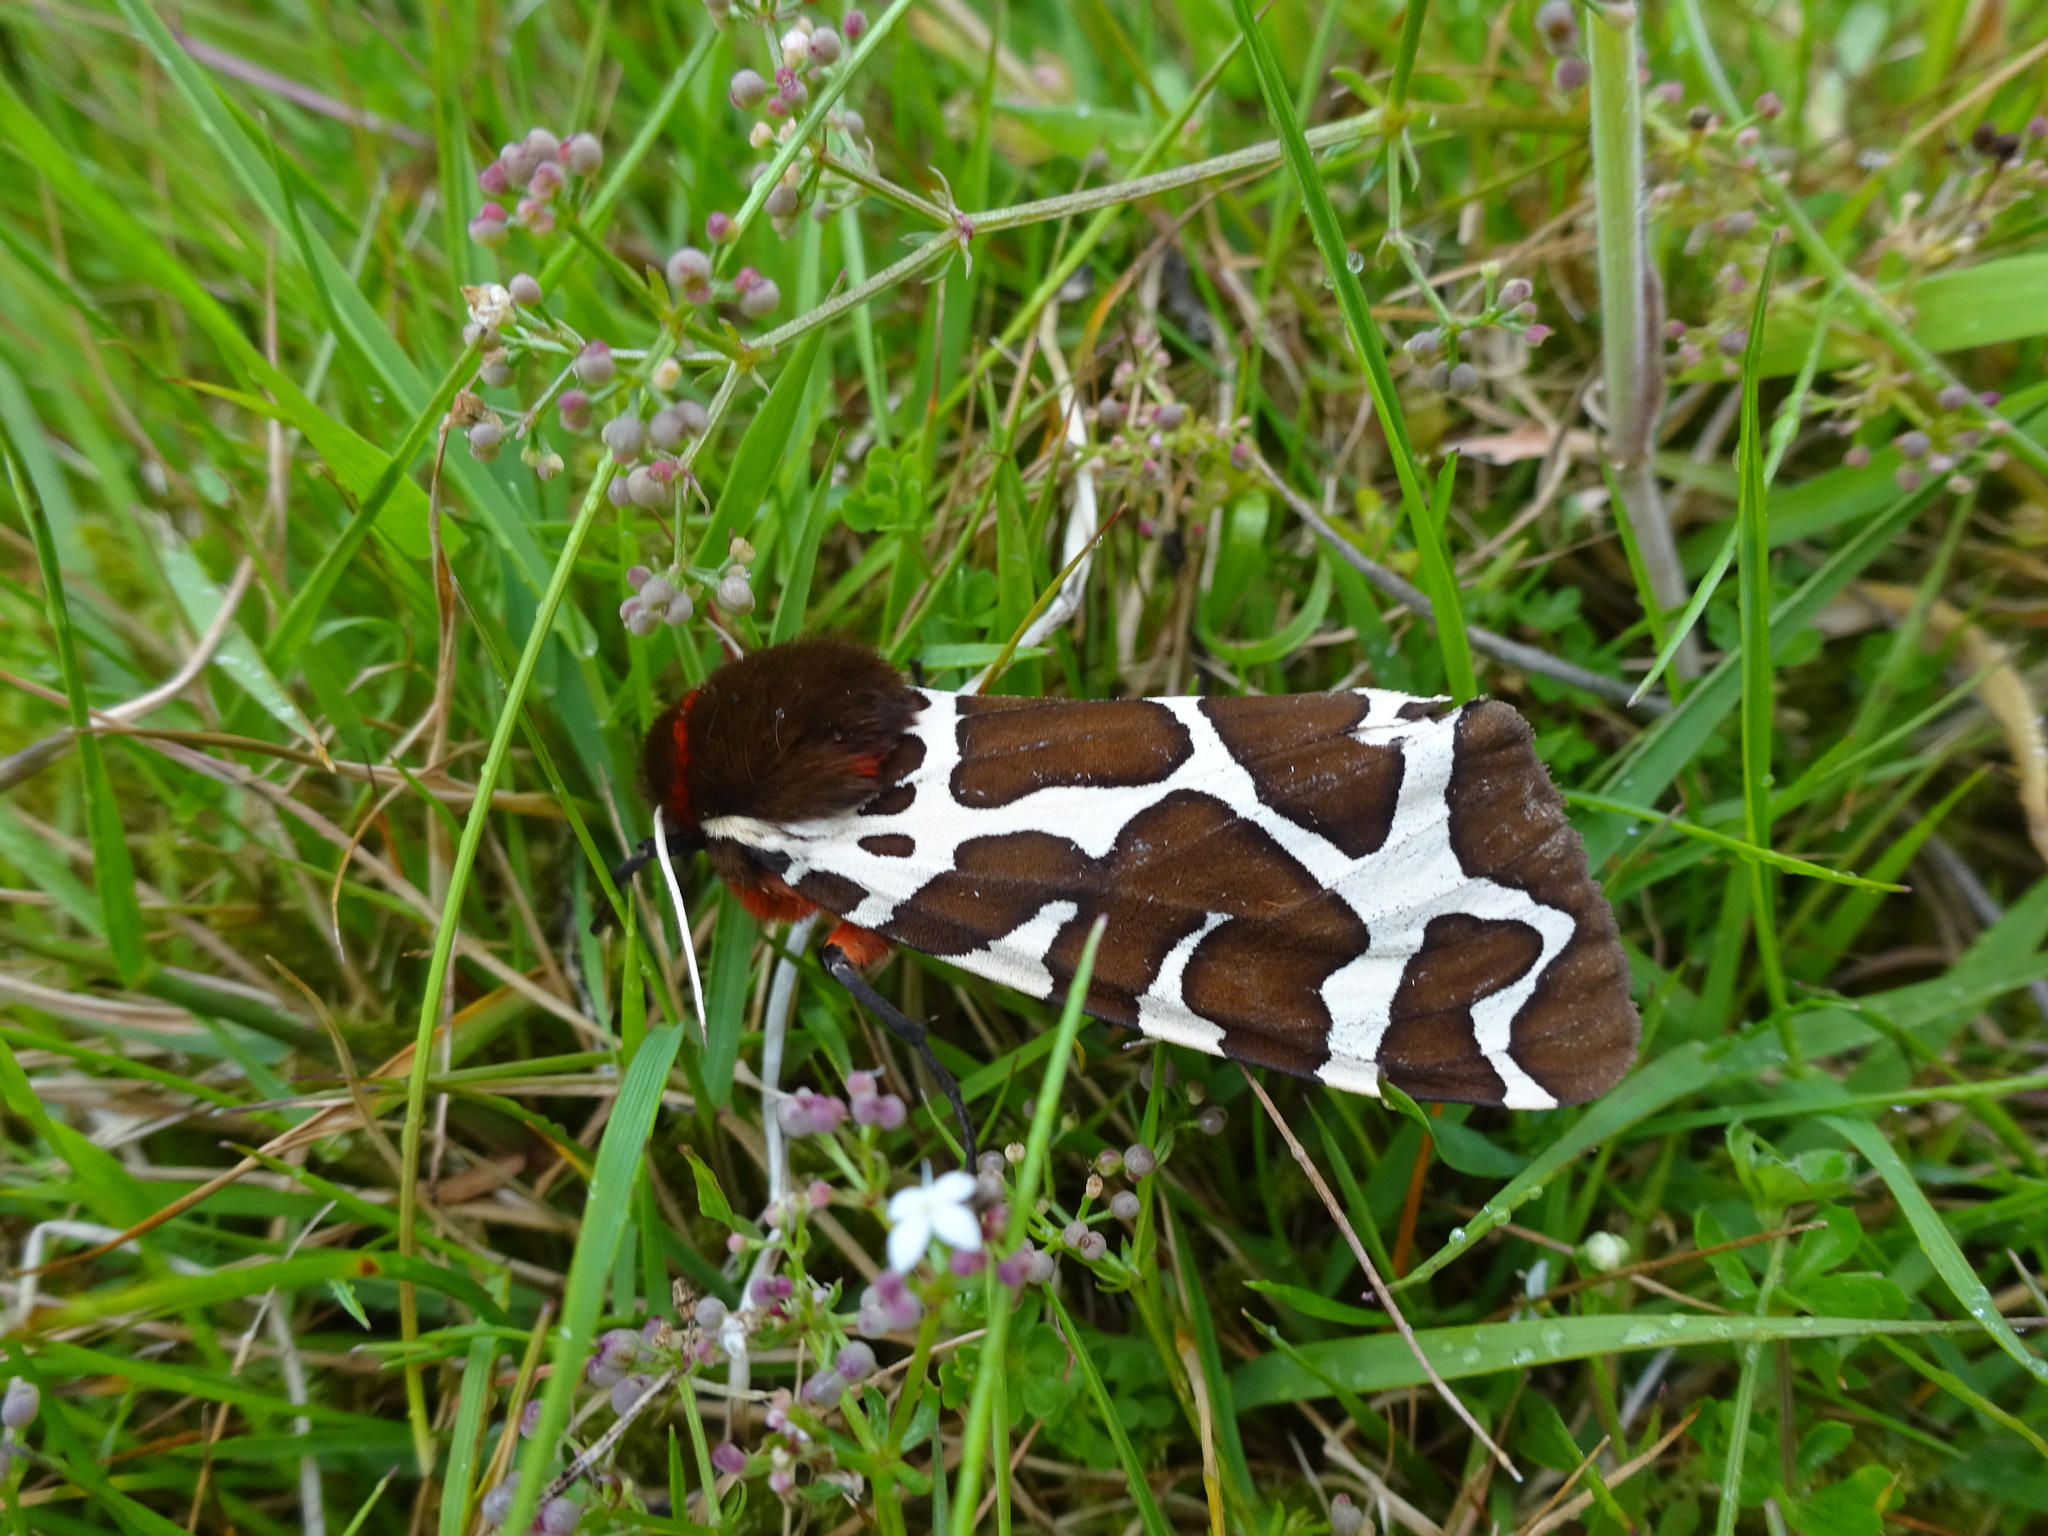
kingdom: Animalia
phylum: Arthropoda
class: Insecta
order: Lepidoptera
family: Erebidae
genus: Arctia
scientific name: Arctia caja
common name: Garden tiger
